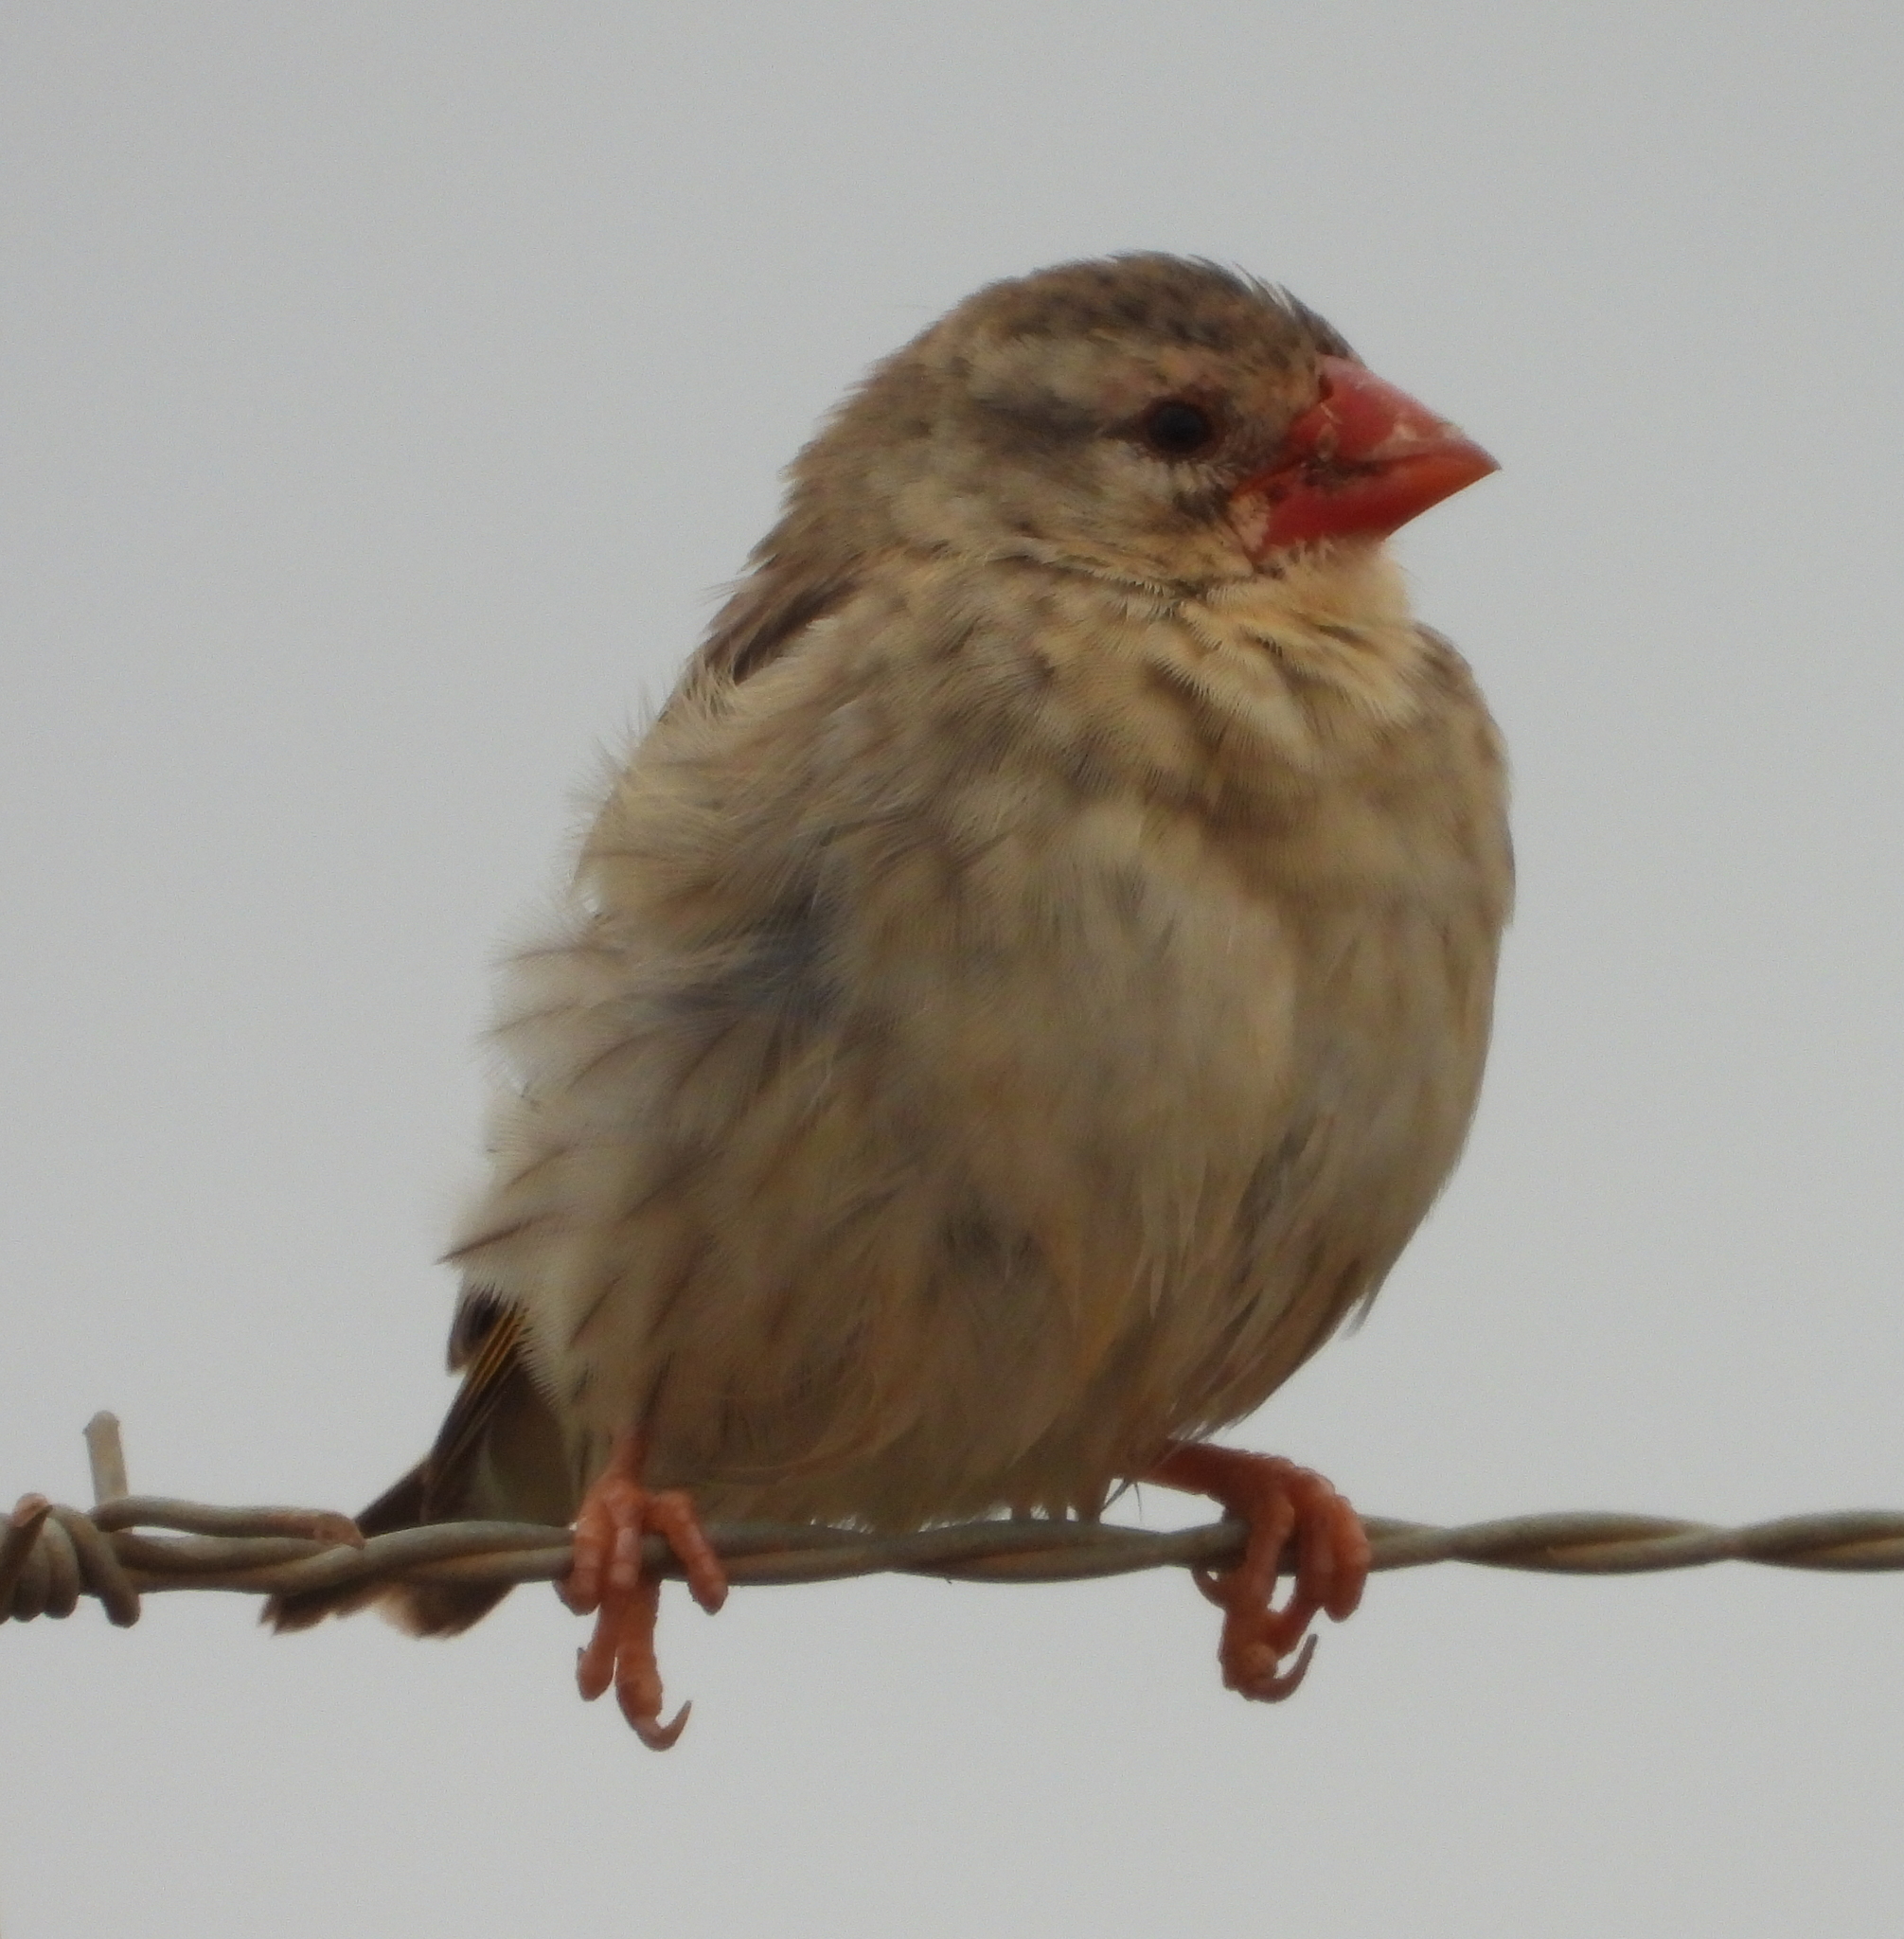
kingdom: Animalia
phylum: Chordata
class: Aves
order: Passeriformes
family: Ploceidae
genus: Quelea
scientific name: Quelea quelea
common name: Red-billed quelea
